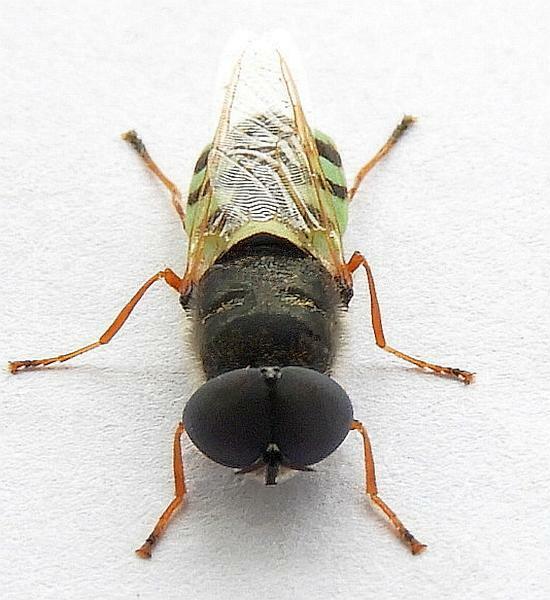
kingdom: Animalia
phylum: Arthropoda
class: Insecta
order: Diptera
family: Stratiomyidae
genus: Odontomyia
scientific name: Odontomyia rufipes
